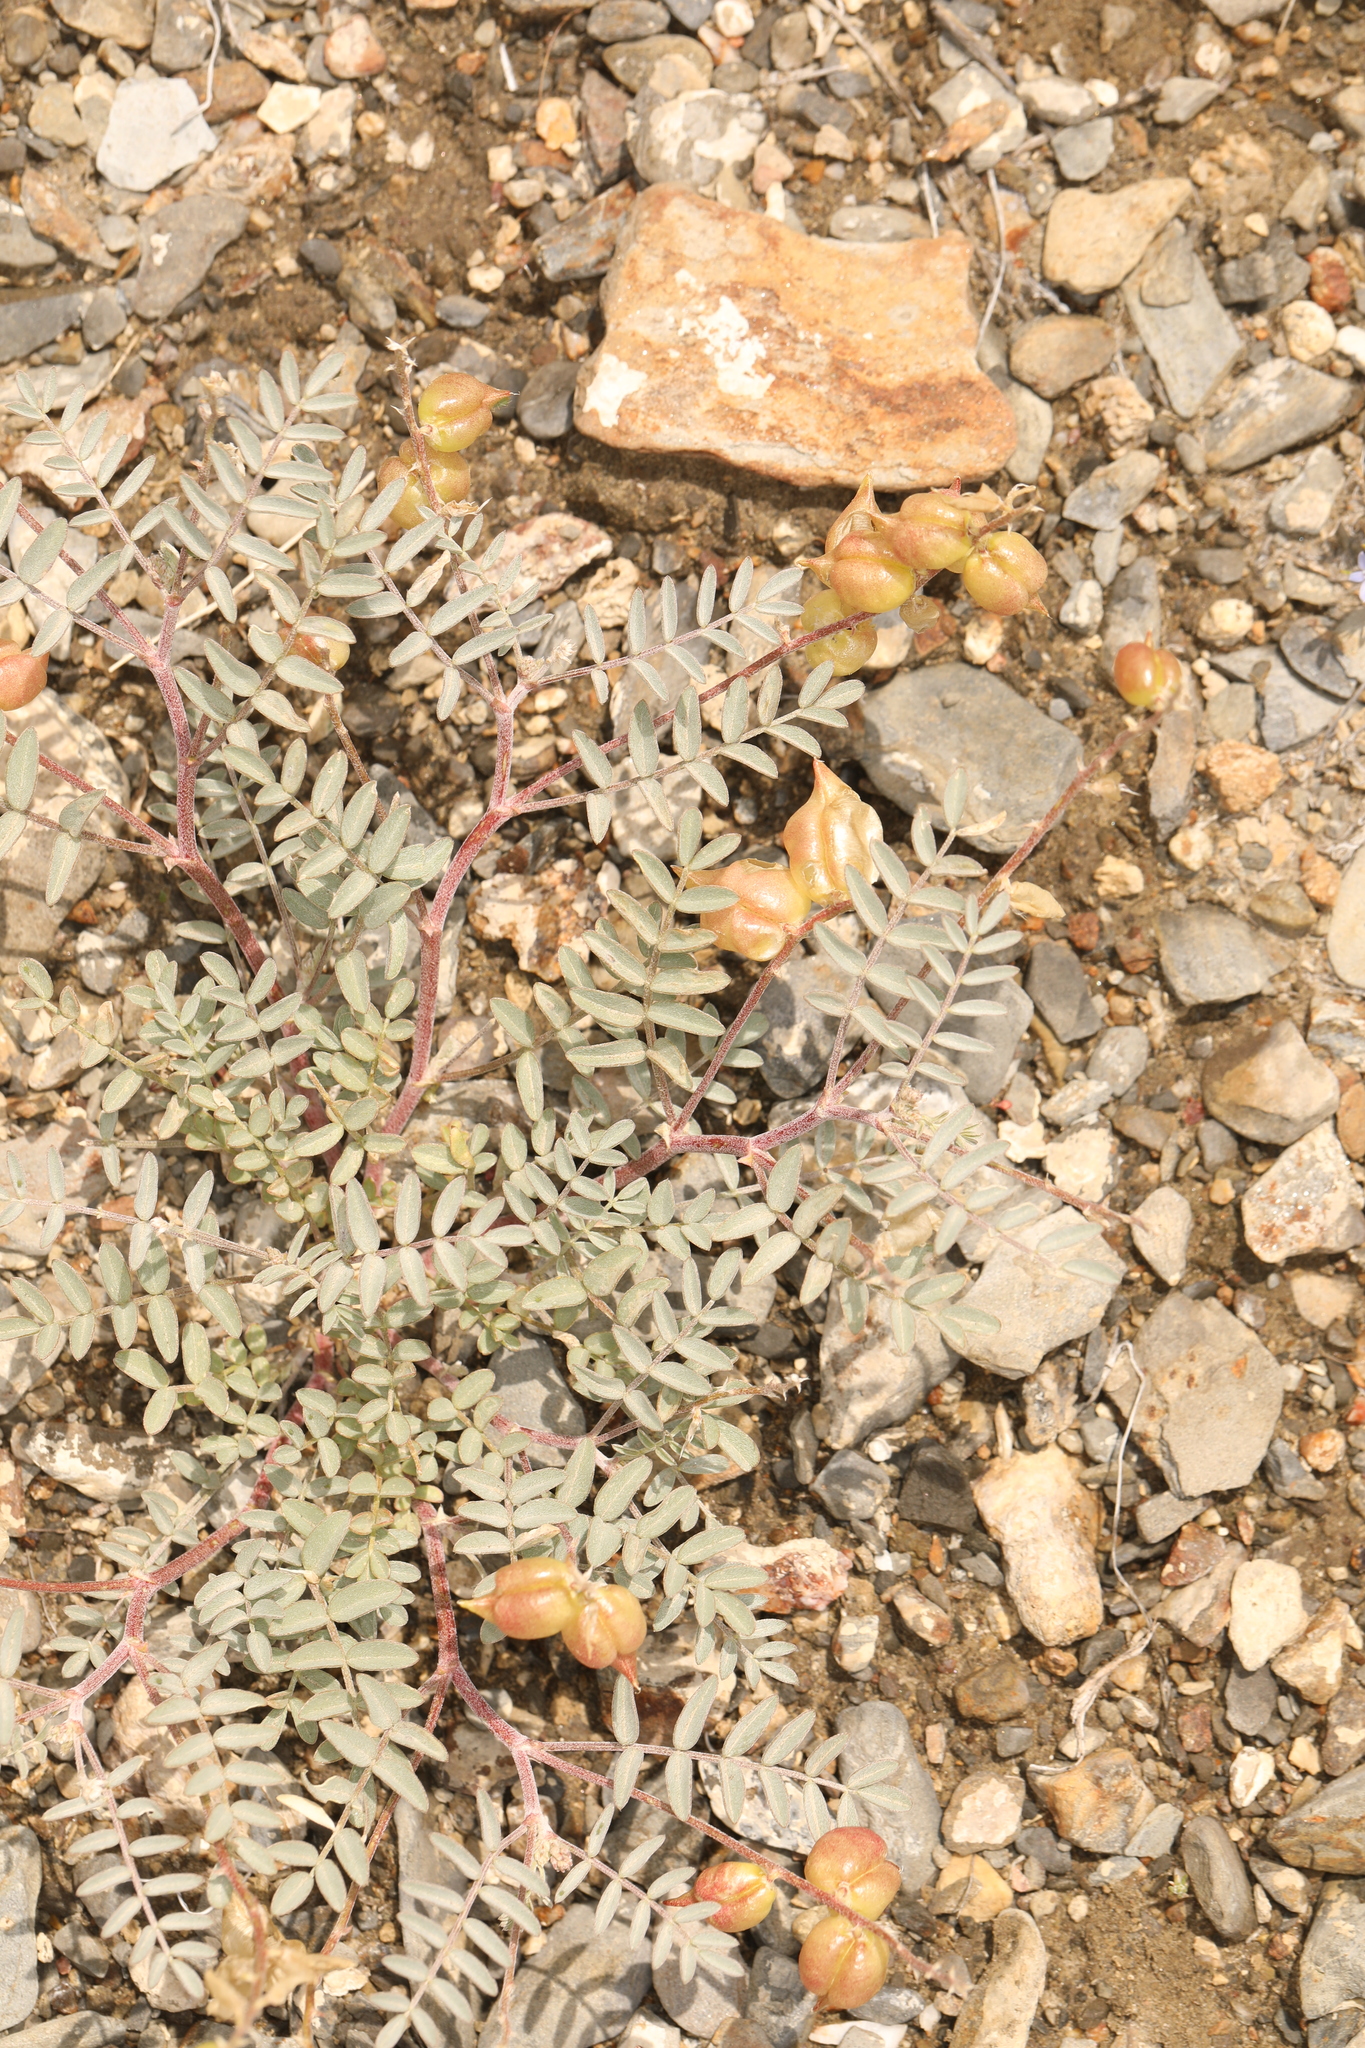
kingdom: Plantae
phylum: Tracheophyta
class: Magnoliopsida
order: Fabales
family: Fabaceae
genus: Astragalus
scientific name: Astragalus lentiginosus
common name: Freckled milkvetch
